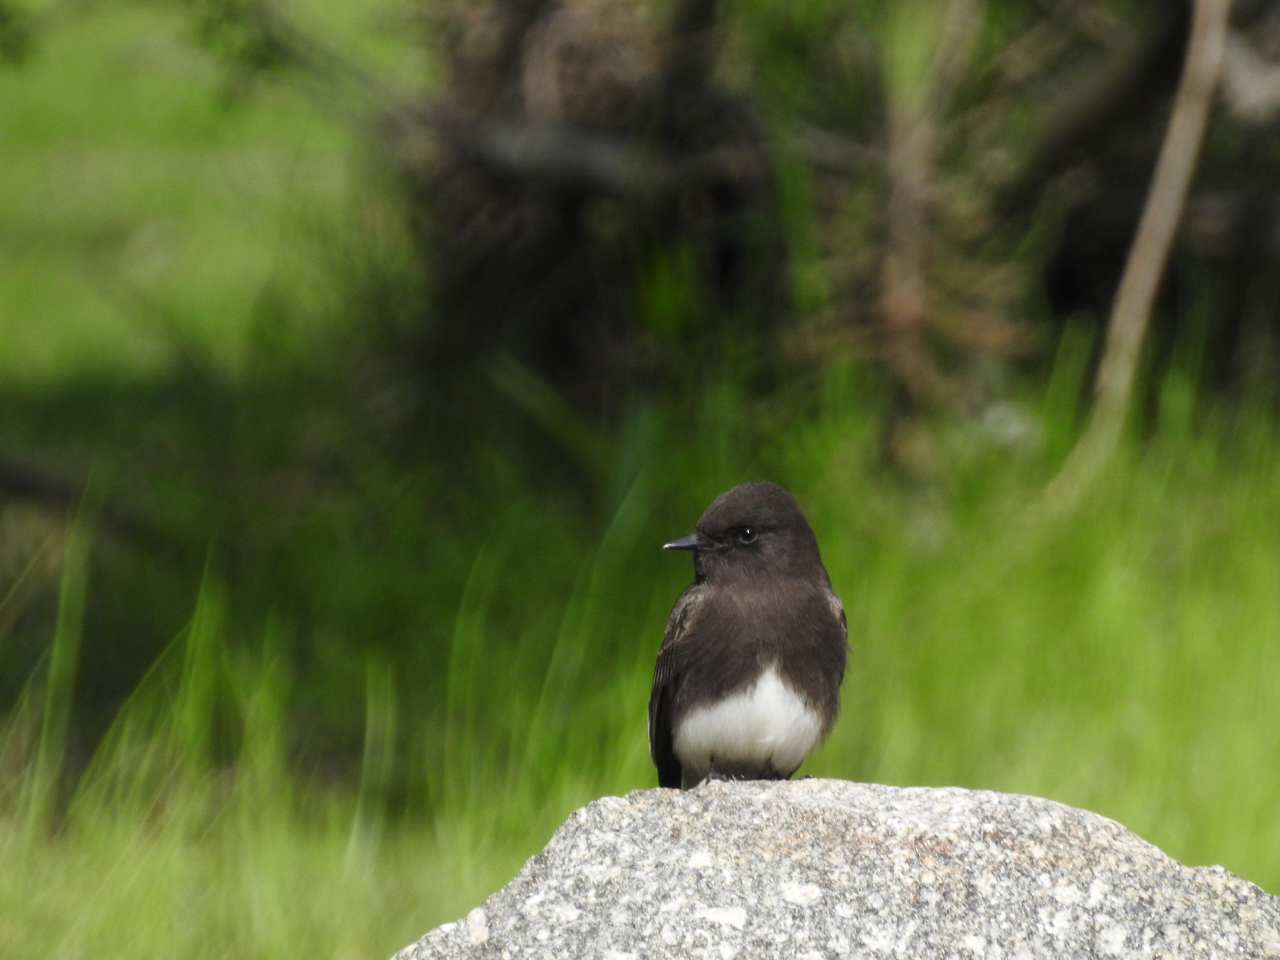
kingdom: Animalia
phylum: Chordata
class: Aves
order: Passeriformes
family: Tyrannidae
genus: Sayornis
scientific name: Sayornis nigricans
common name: Black phoebe
